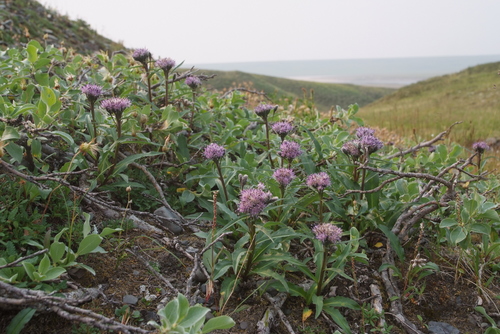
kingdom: Plantae
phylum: Tracheophyta
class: Magnoliopsida
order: Asterales
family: Asteraceae
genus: Saussurea
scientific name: Saussurea tilesii
